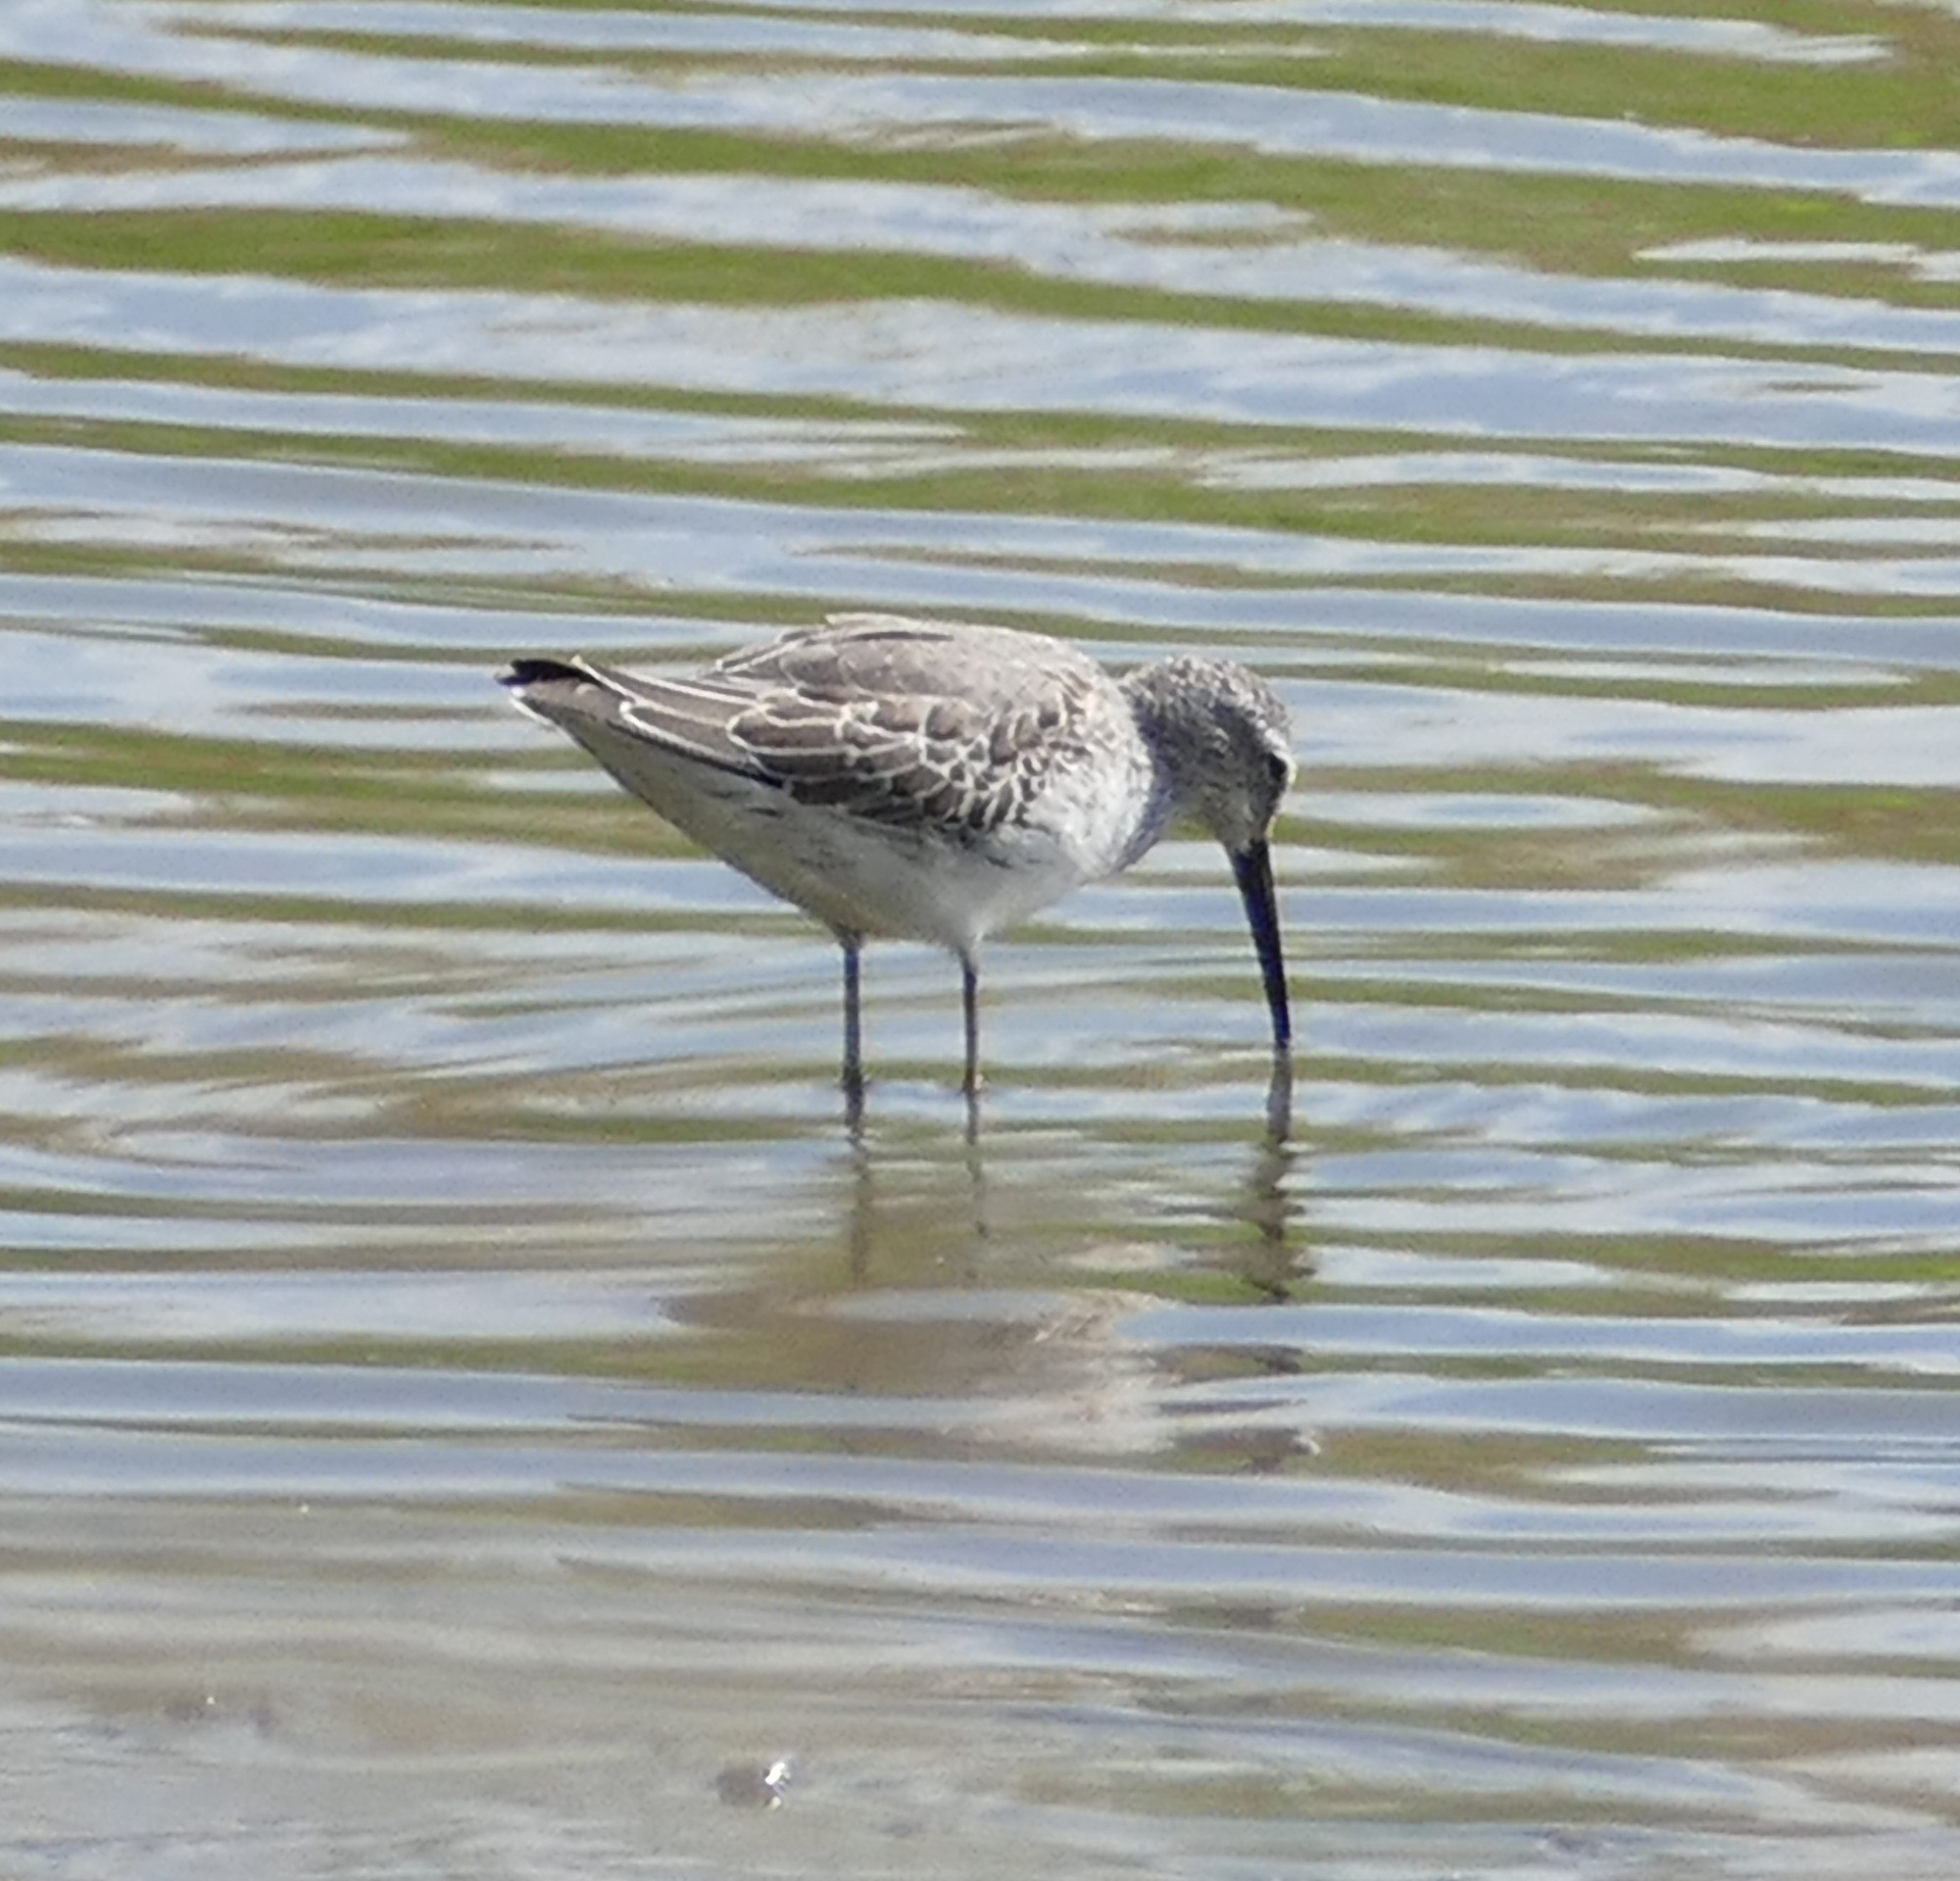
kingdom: Animalia
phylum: Chordata
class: Aves
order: Charadriiformes
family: Scolopacidae
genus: Calidris
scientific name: Calidris himantopus
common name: Stilt sandpiper
